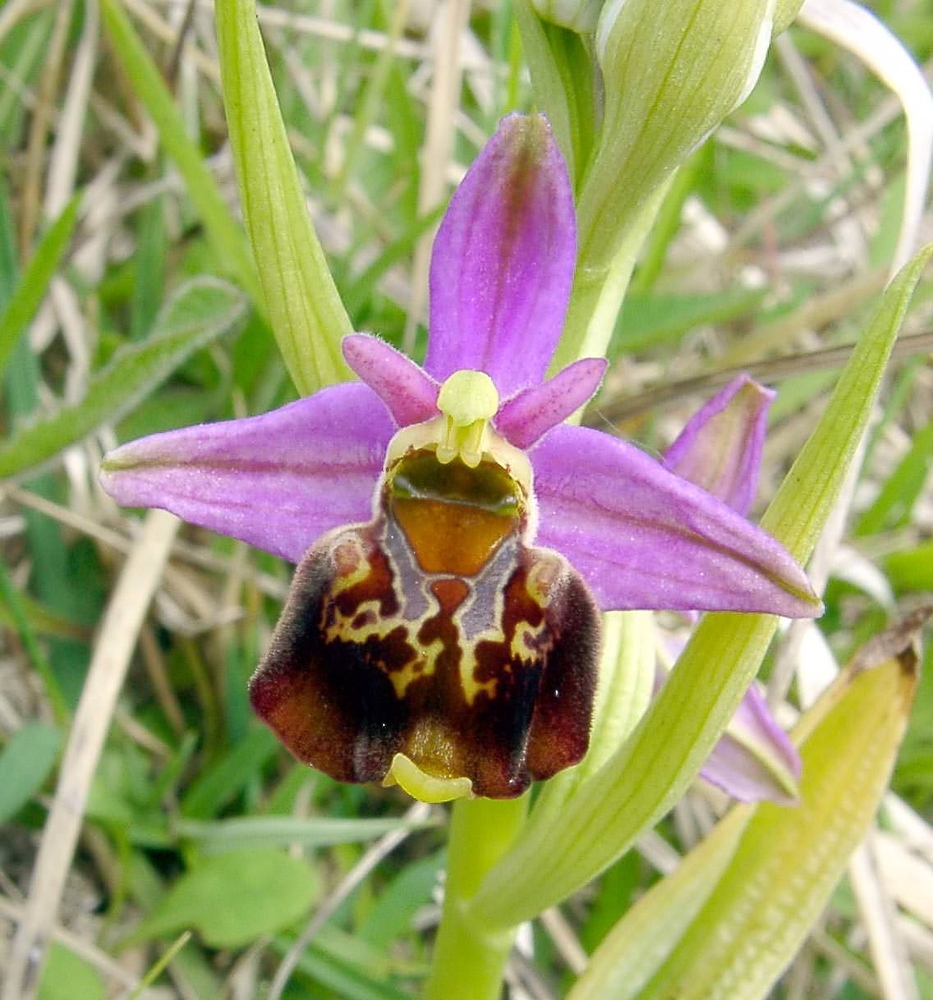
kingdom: Plantae
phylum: Tracheophyta
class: Liliopsida
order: Asparagales
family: Orchidaceae
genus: Ophrys
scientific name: Ophrys holosericea
